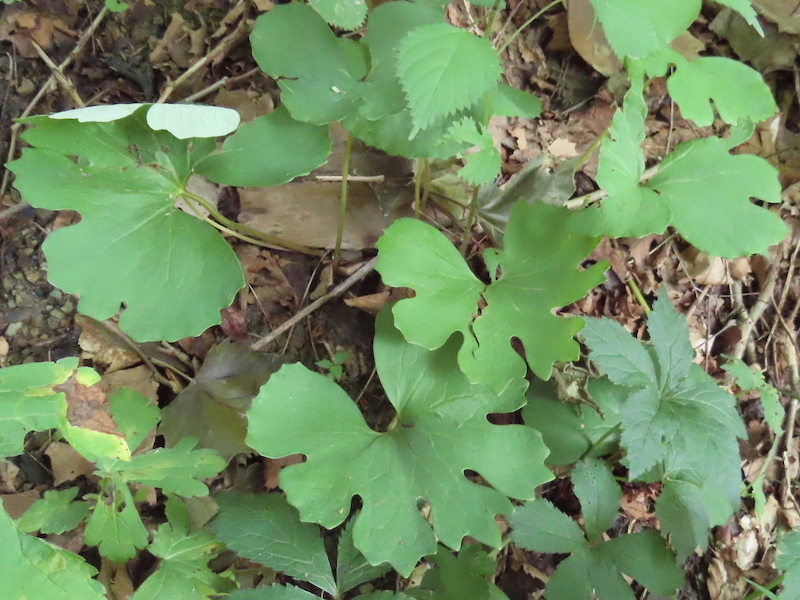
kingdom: Plantae
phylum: Tracheophyta
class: Magnoliopsida
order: Ranunculales
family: Papaveraceae
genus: Sanguinaria
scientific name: Sanguinaria canadensis
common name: Bloodroot
